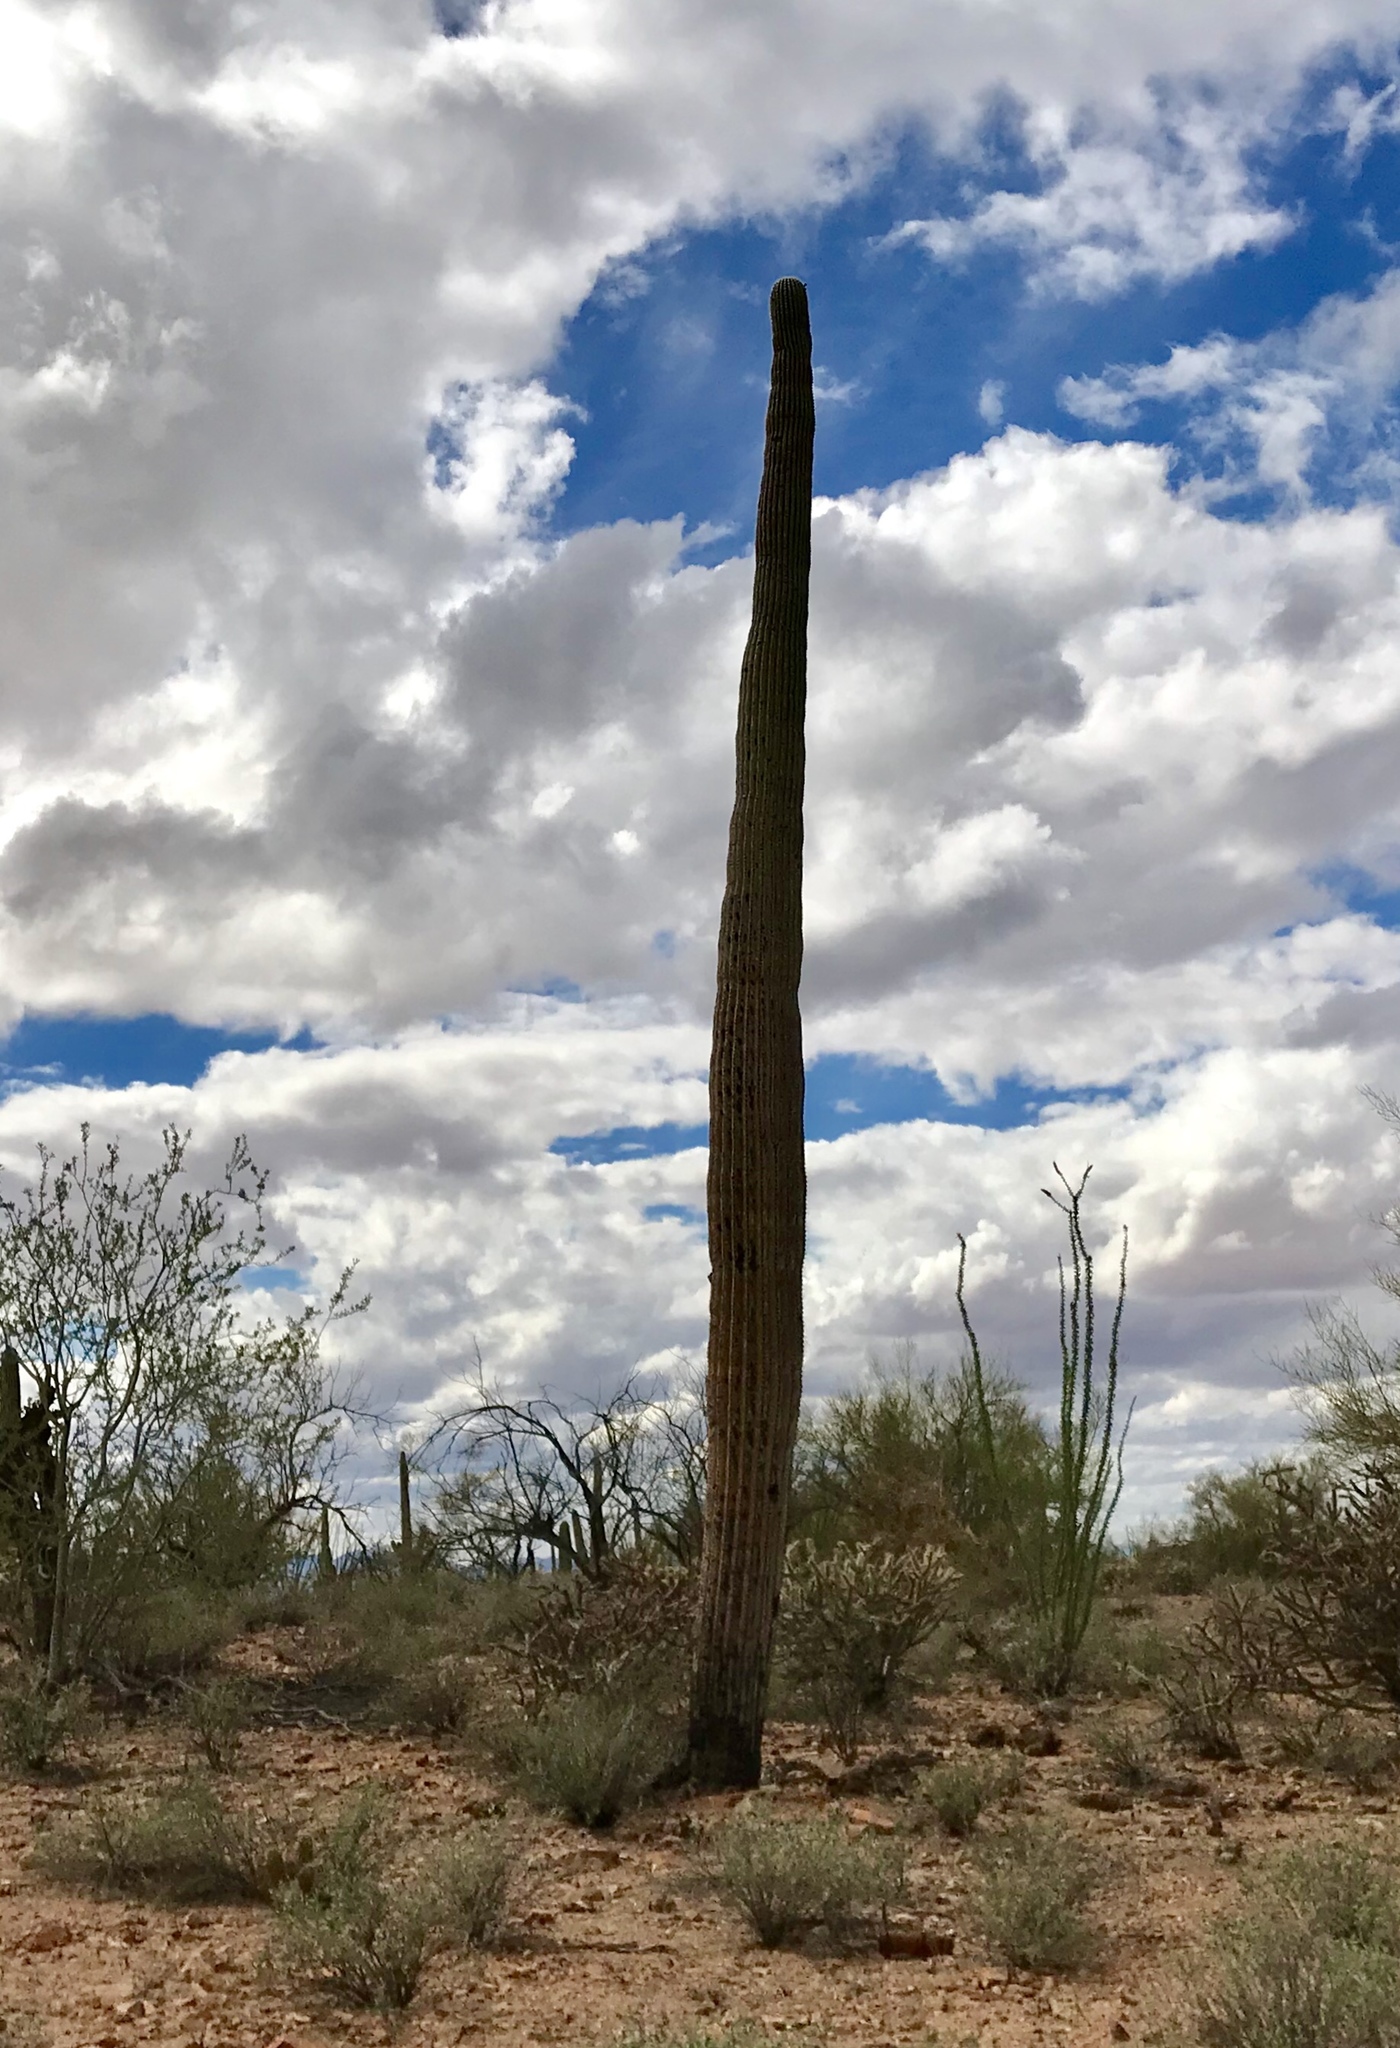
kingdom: Plantae
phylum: Tracheophyta
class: Magnoliopsida
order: Caryophyllales
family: Cactaceae
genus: Carnegiea
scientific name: Carnegiea gigantea
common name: Saguaro
